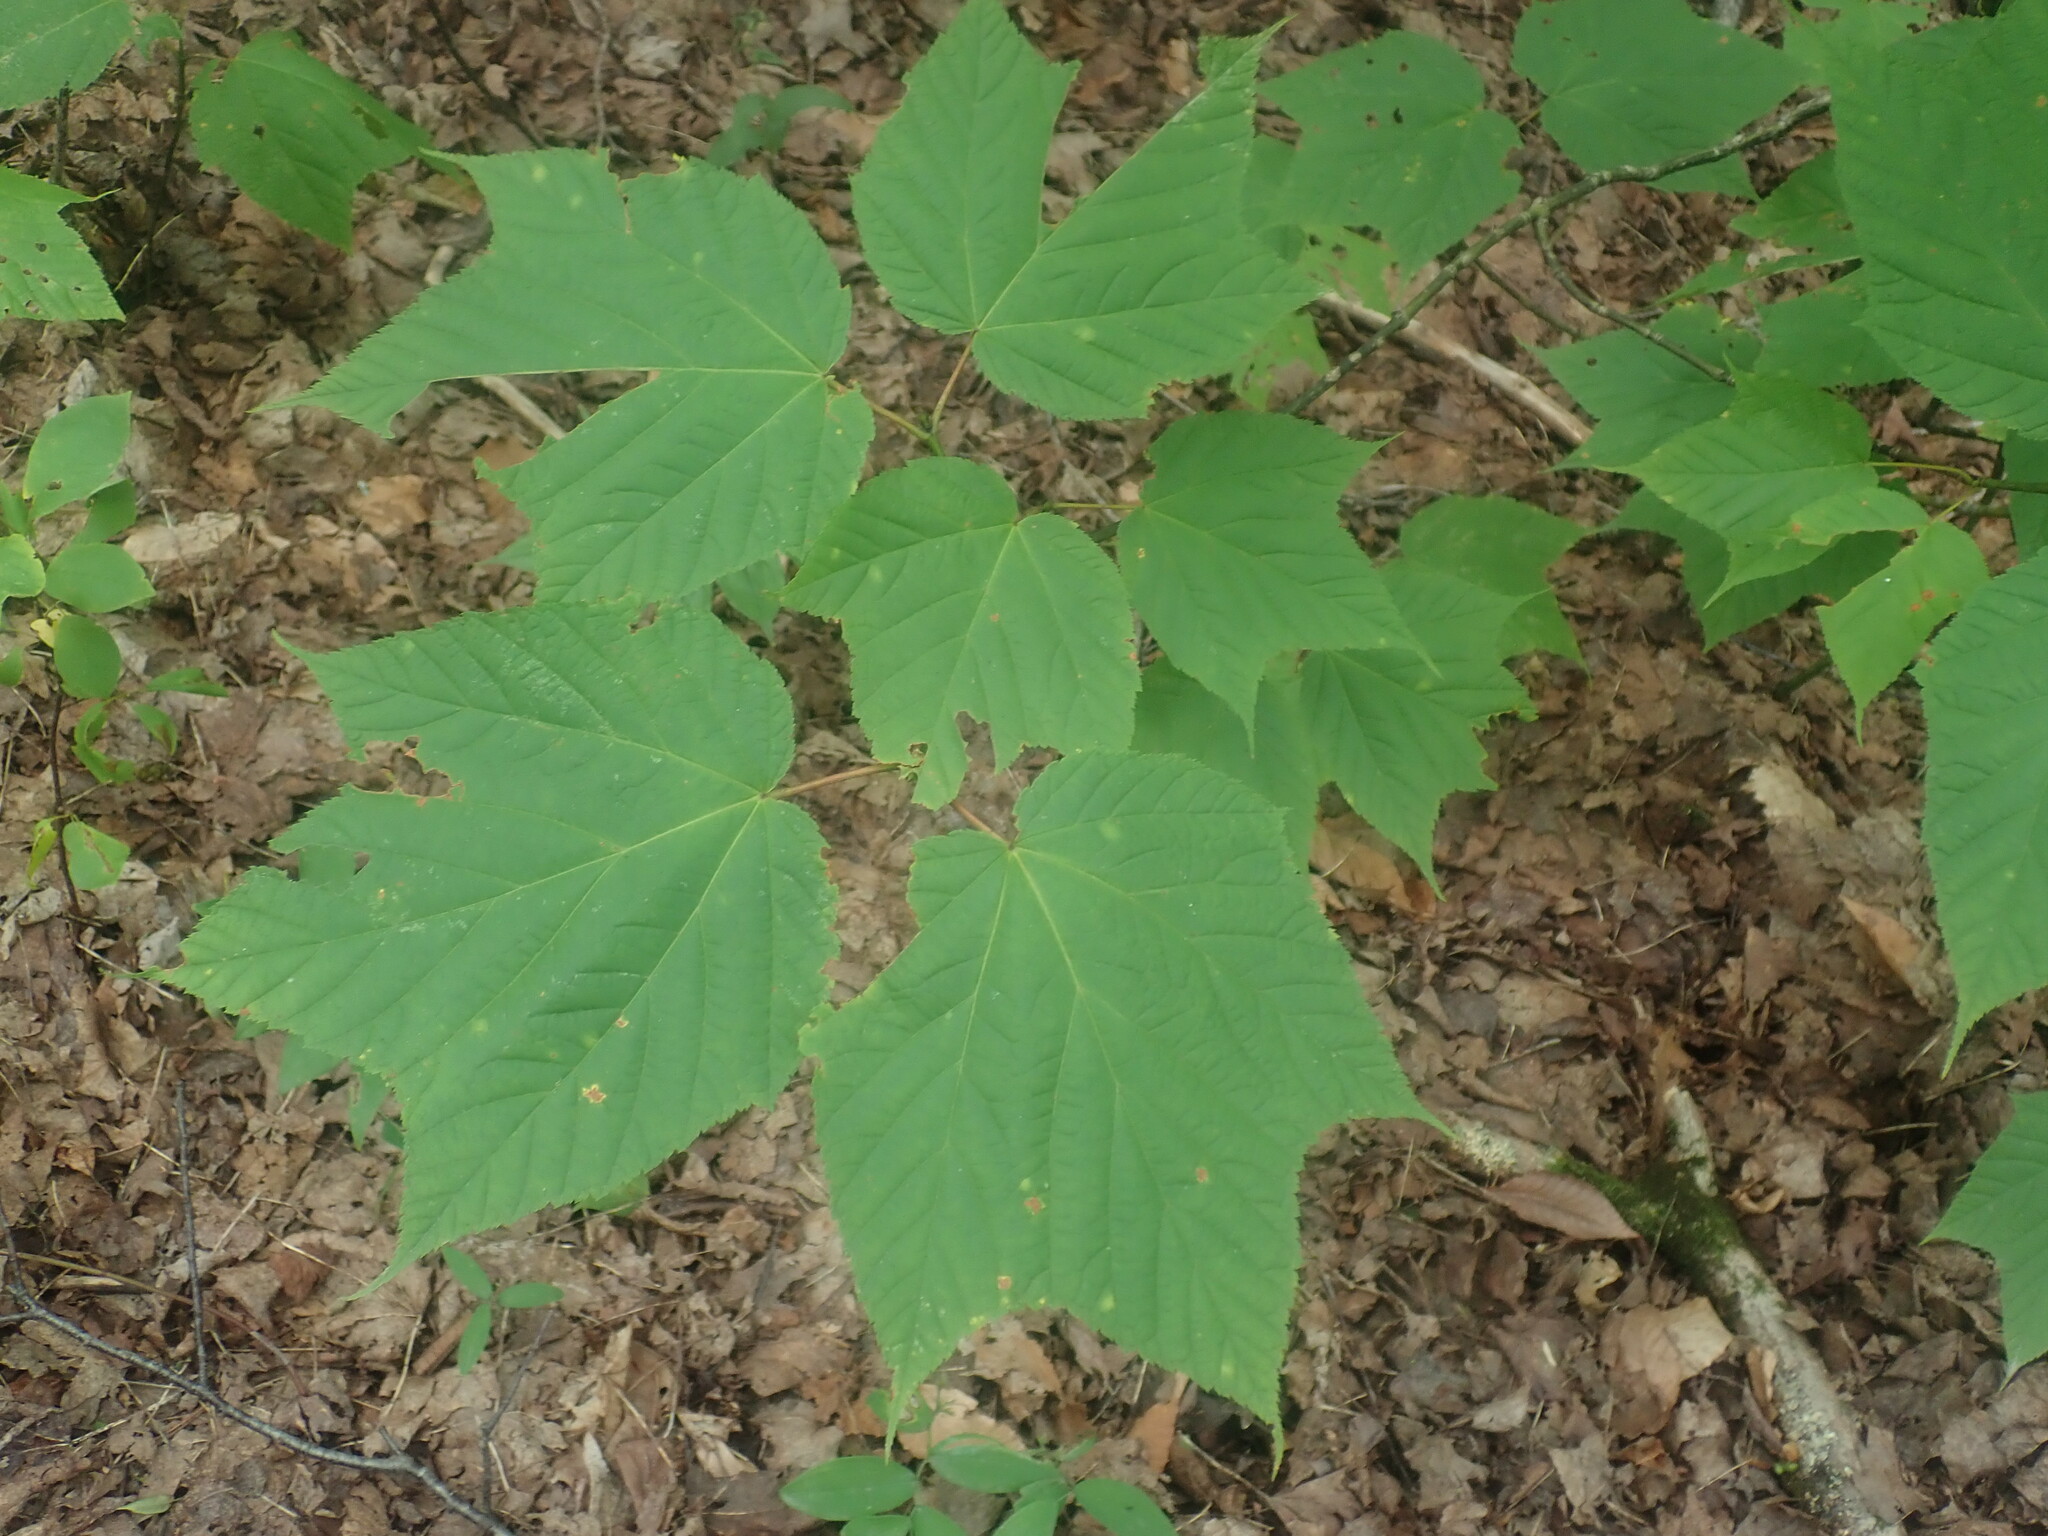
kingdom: Plantae
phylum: Tracheophyta
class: Magnoliopsida
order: Sapindales
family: Sapindaceae
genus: Acer
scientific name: Acer pensylvanicum
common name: Moosewood
